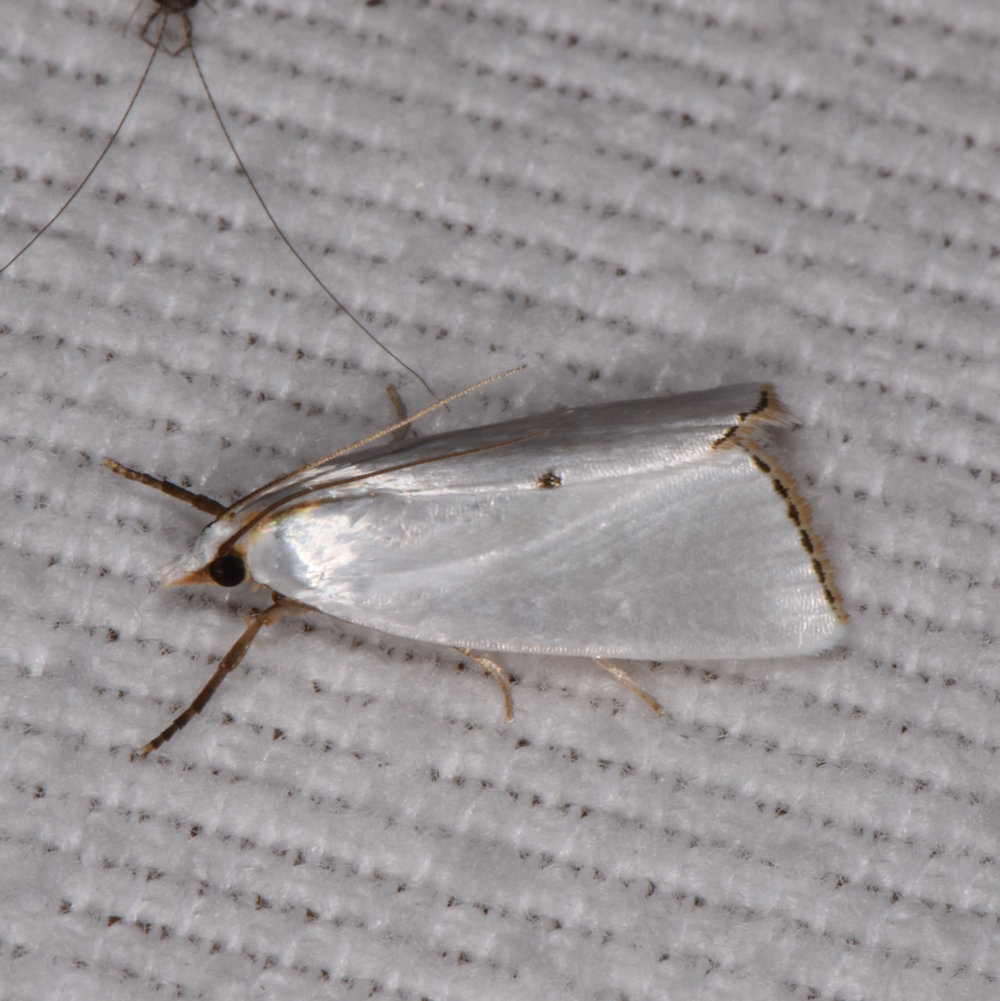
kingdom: Animalia
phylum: Arthropoda
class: Insecta
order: Lepidoptera
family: Crambidae
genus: Argyria
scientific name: Argyria nivalis
